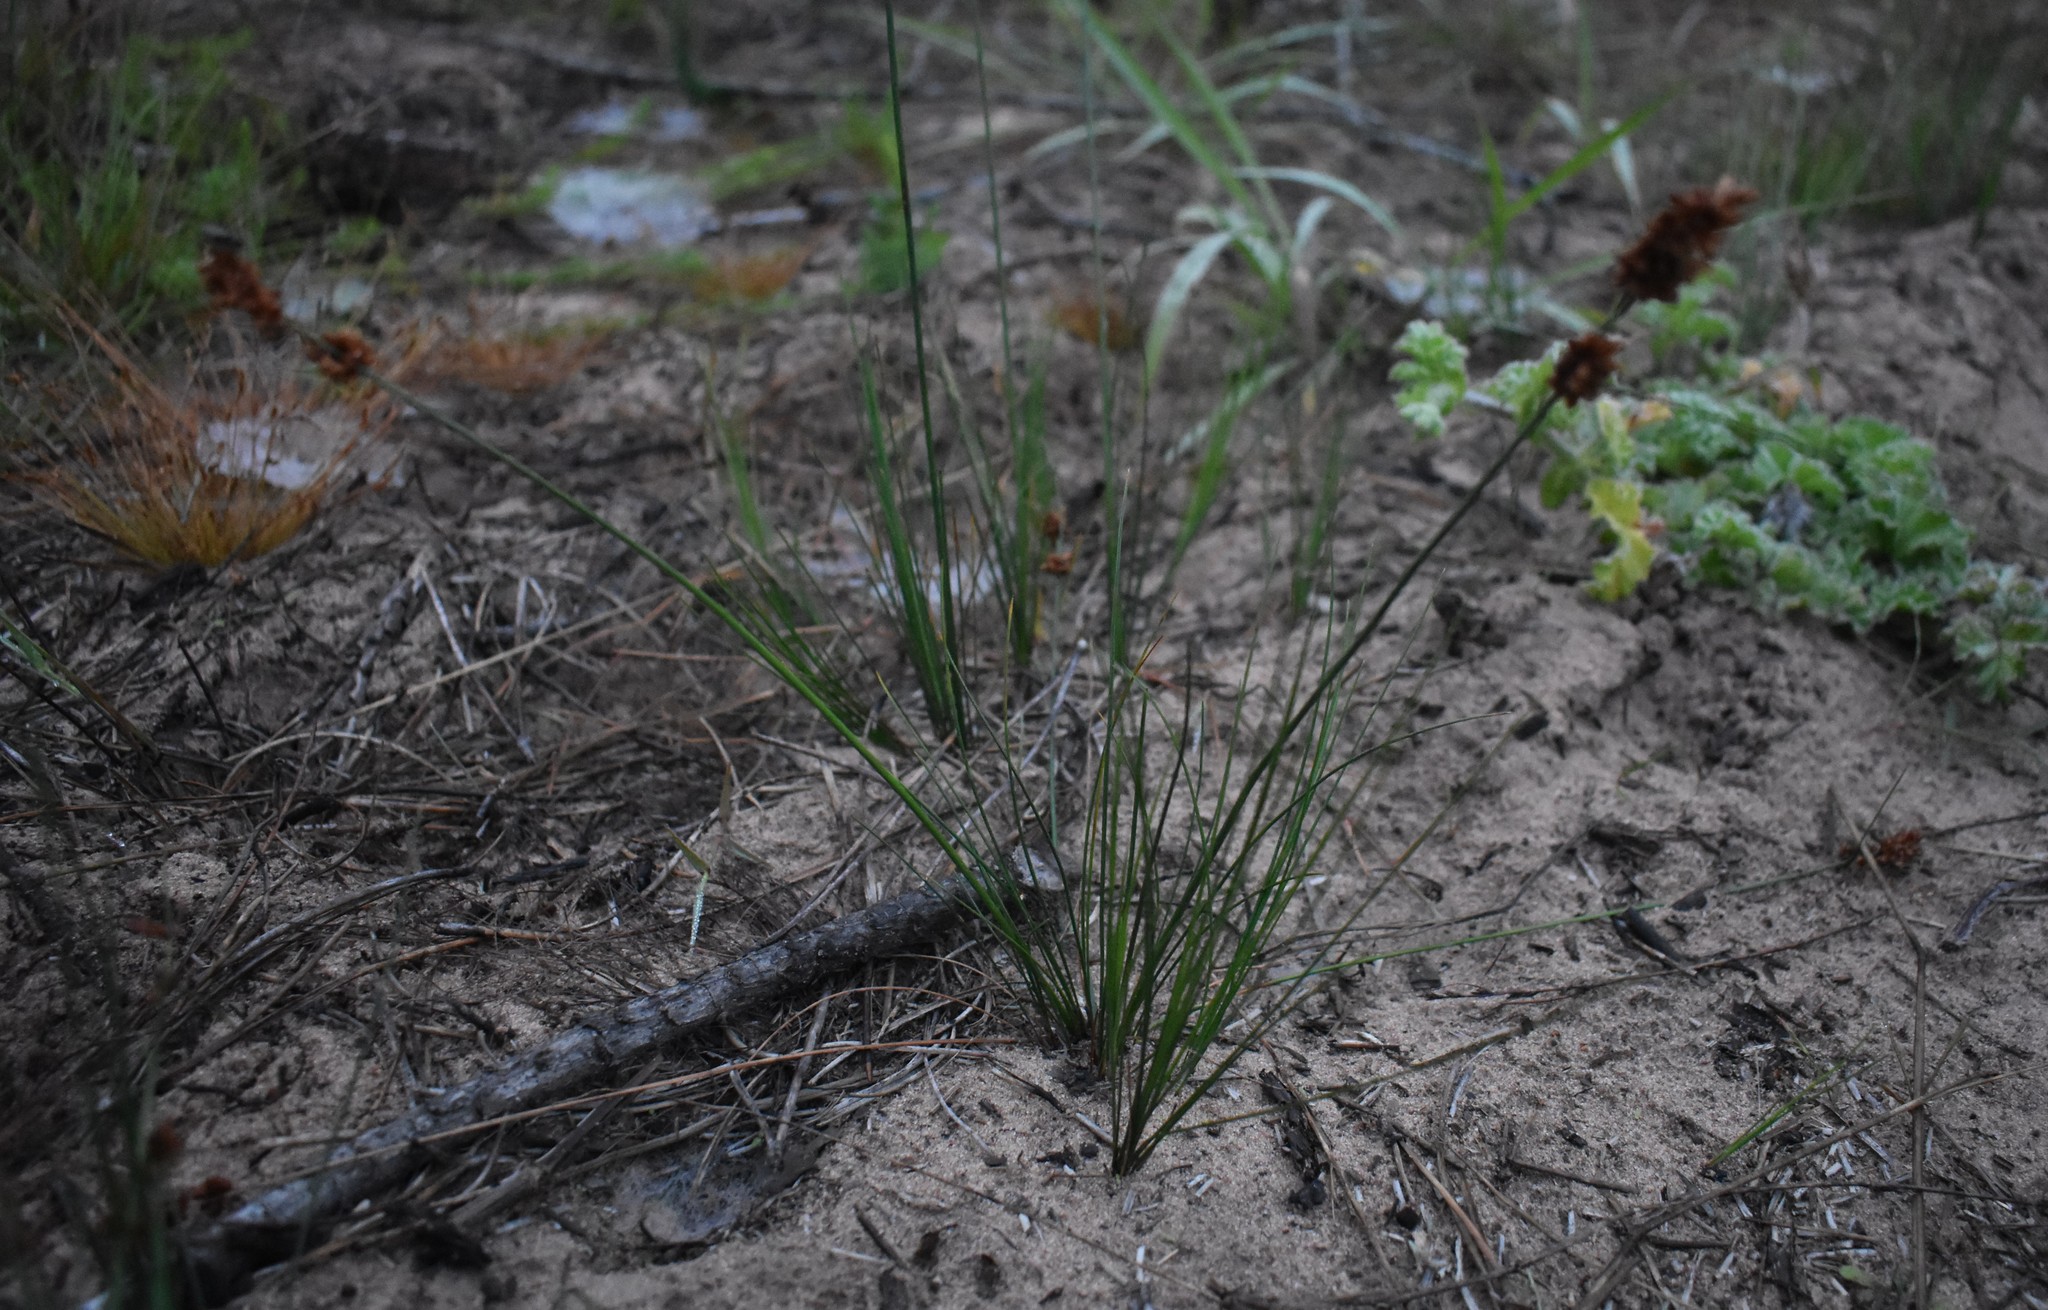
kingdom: Plantae
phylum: Tracheophyta
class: Liliopsida
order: Poales
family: Cyperaceae
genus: Ficinia
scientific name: Ficinia bulbosa
